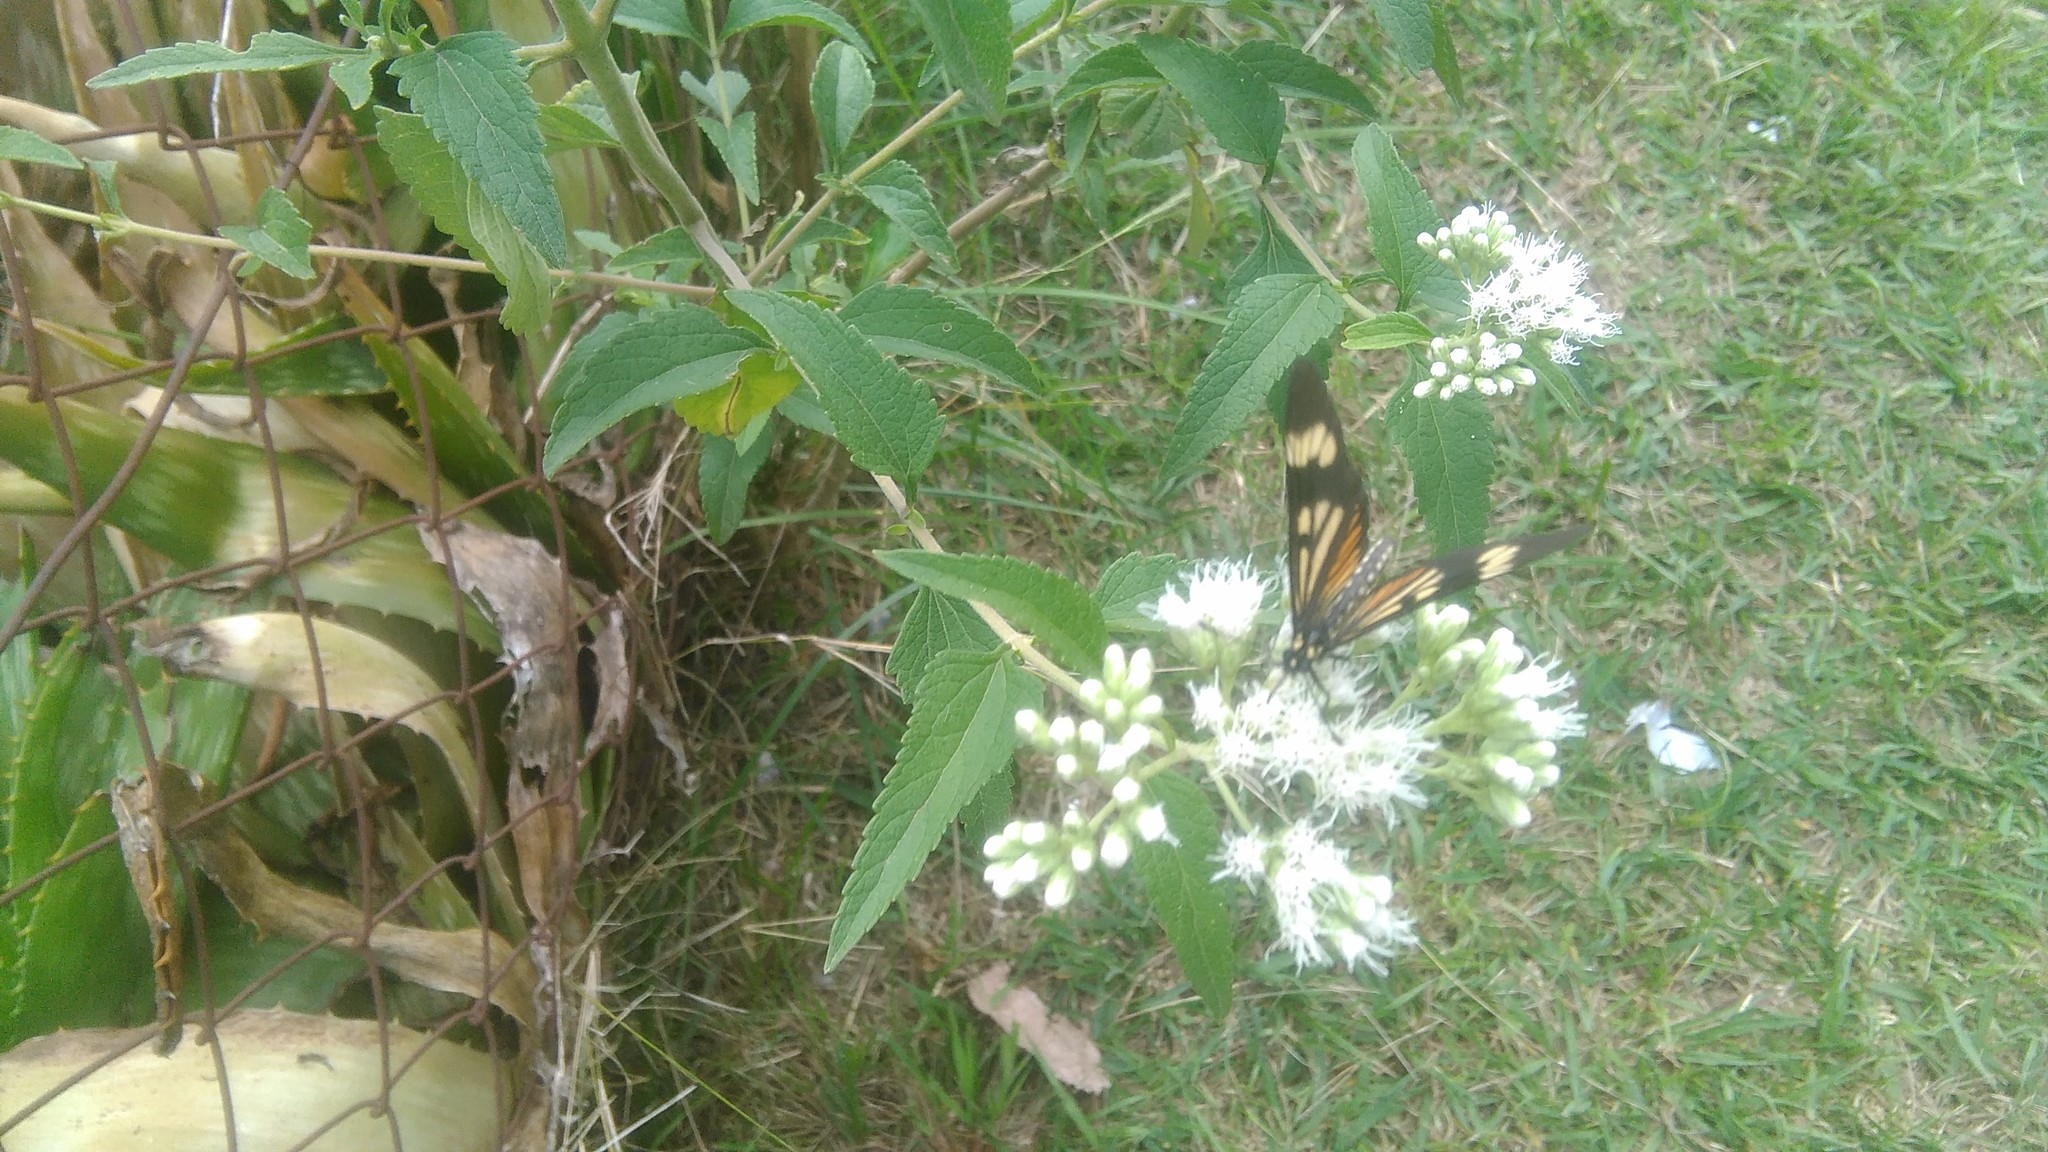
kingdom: Plantae
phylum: Tracheophyta
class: Magnoliopsida
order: Asterales
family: Asteraceae
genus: Austroeupatorium
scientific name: Austroeupatorium inulifolium
